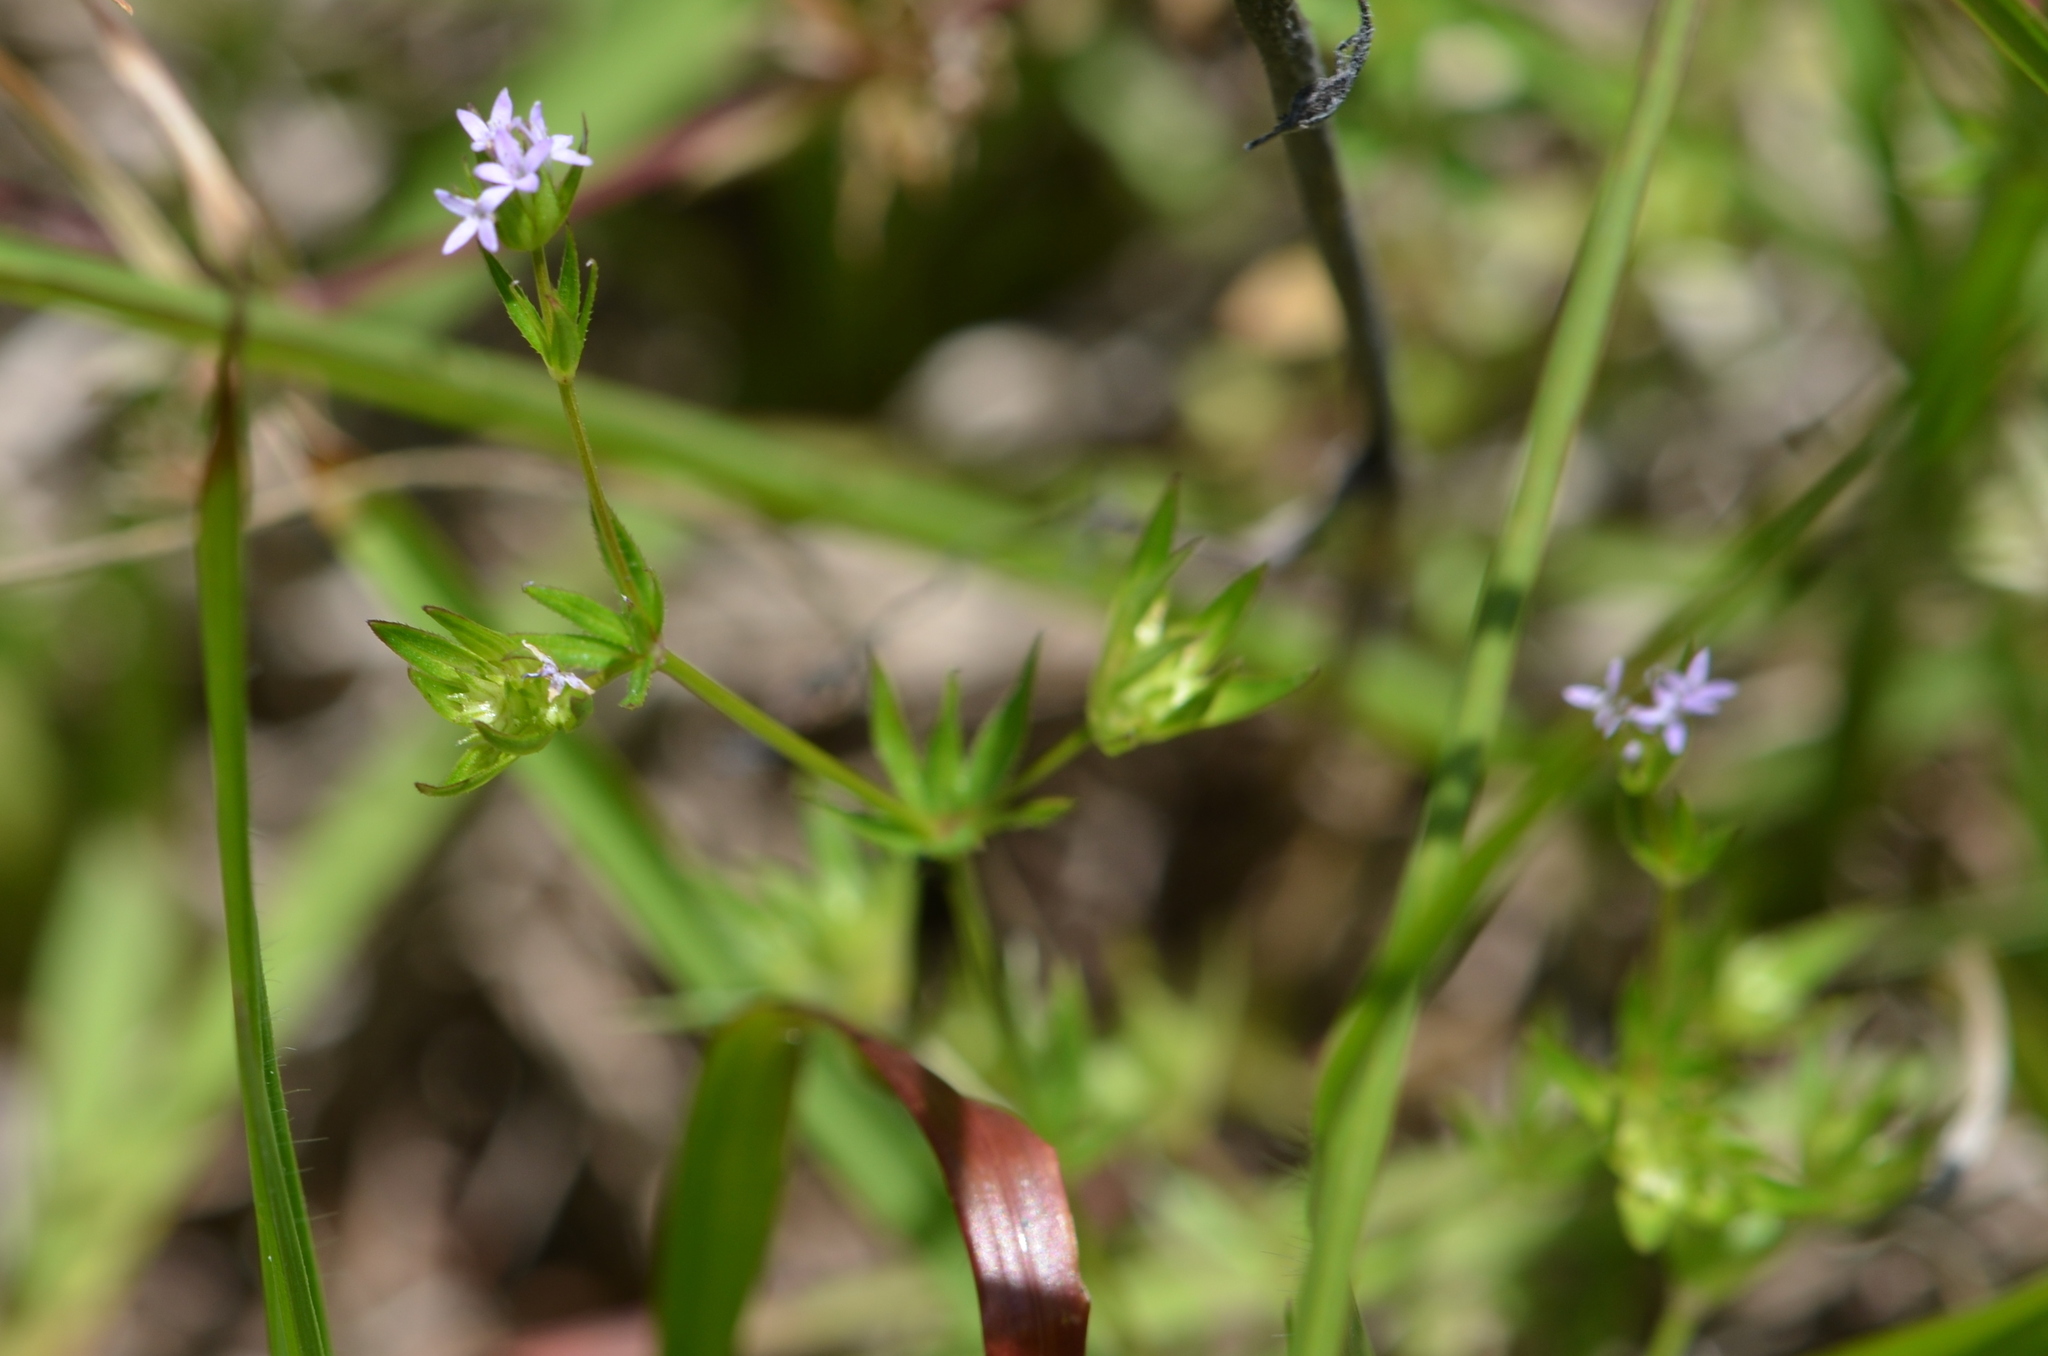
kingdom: Plantae
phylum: Tracheophyta
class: Magnoliopsida
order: Gentianales
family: Rubiaceae
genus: Sherardia
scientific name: Sherardia arvensis
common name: Field madder
